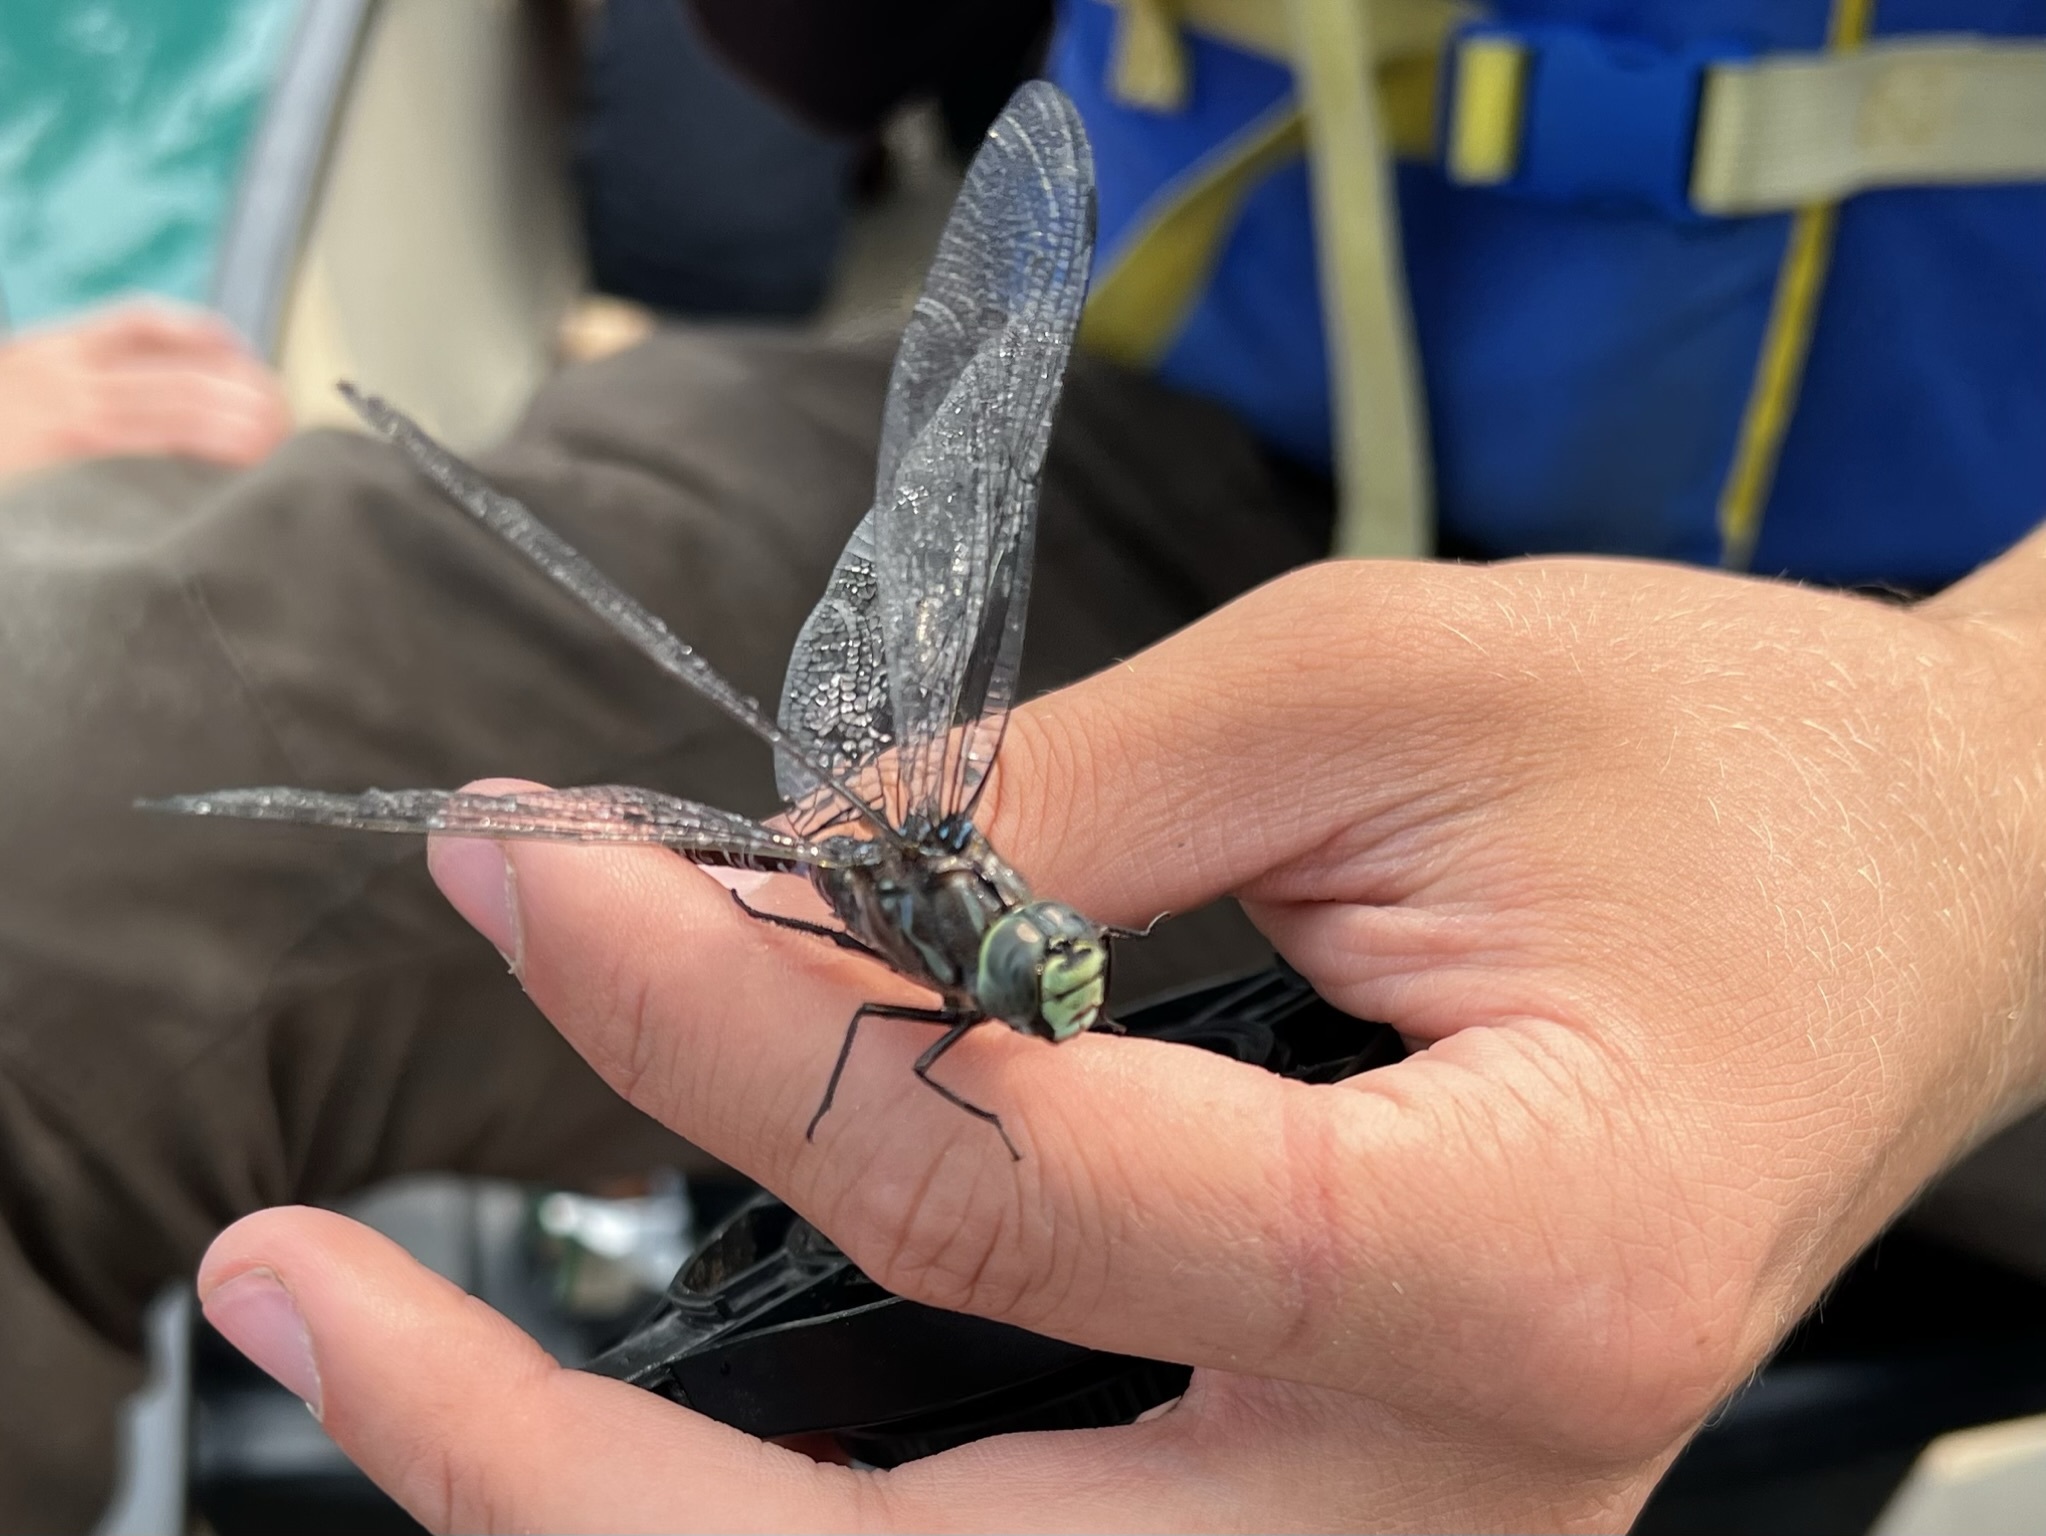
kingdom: Animalia
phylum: Arthropoda
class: Insecta
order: Odonata
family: Aeshnidae
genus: Aeshna
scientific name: Aeshna eremita
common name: Lake darner
